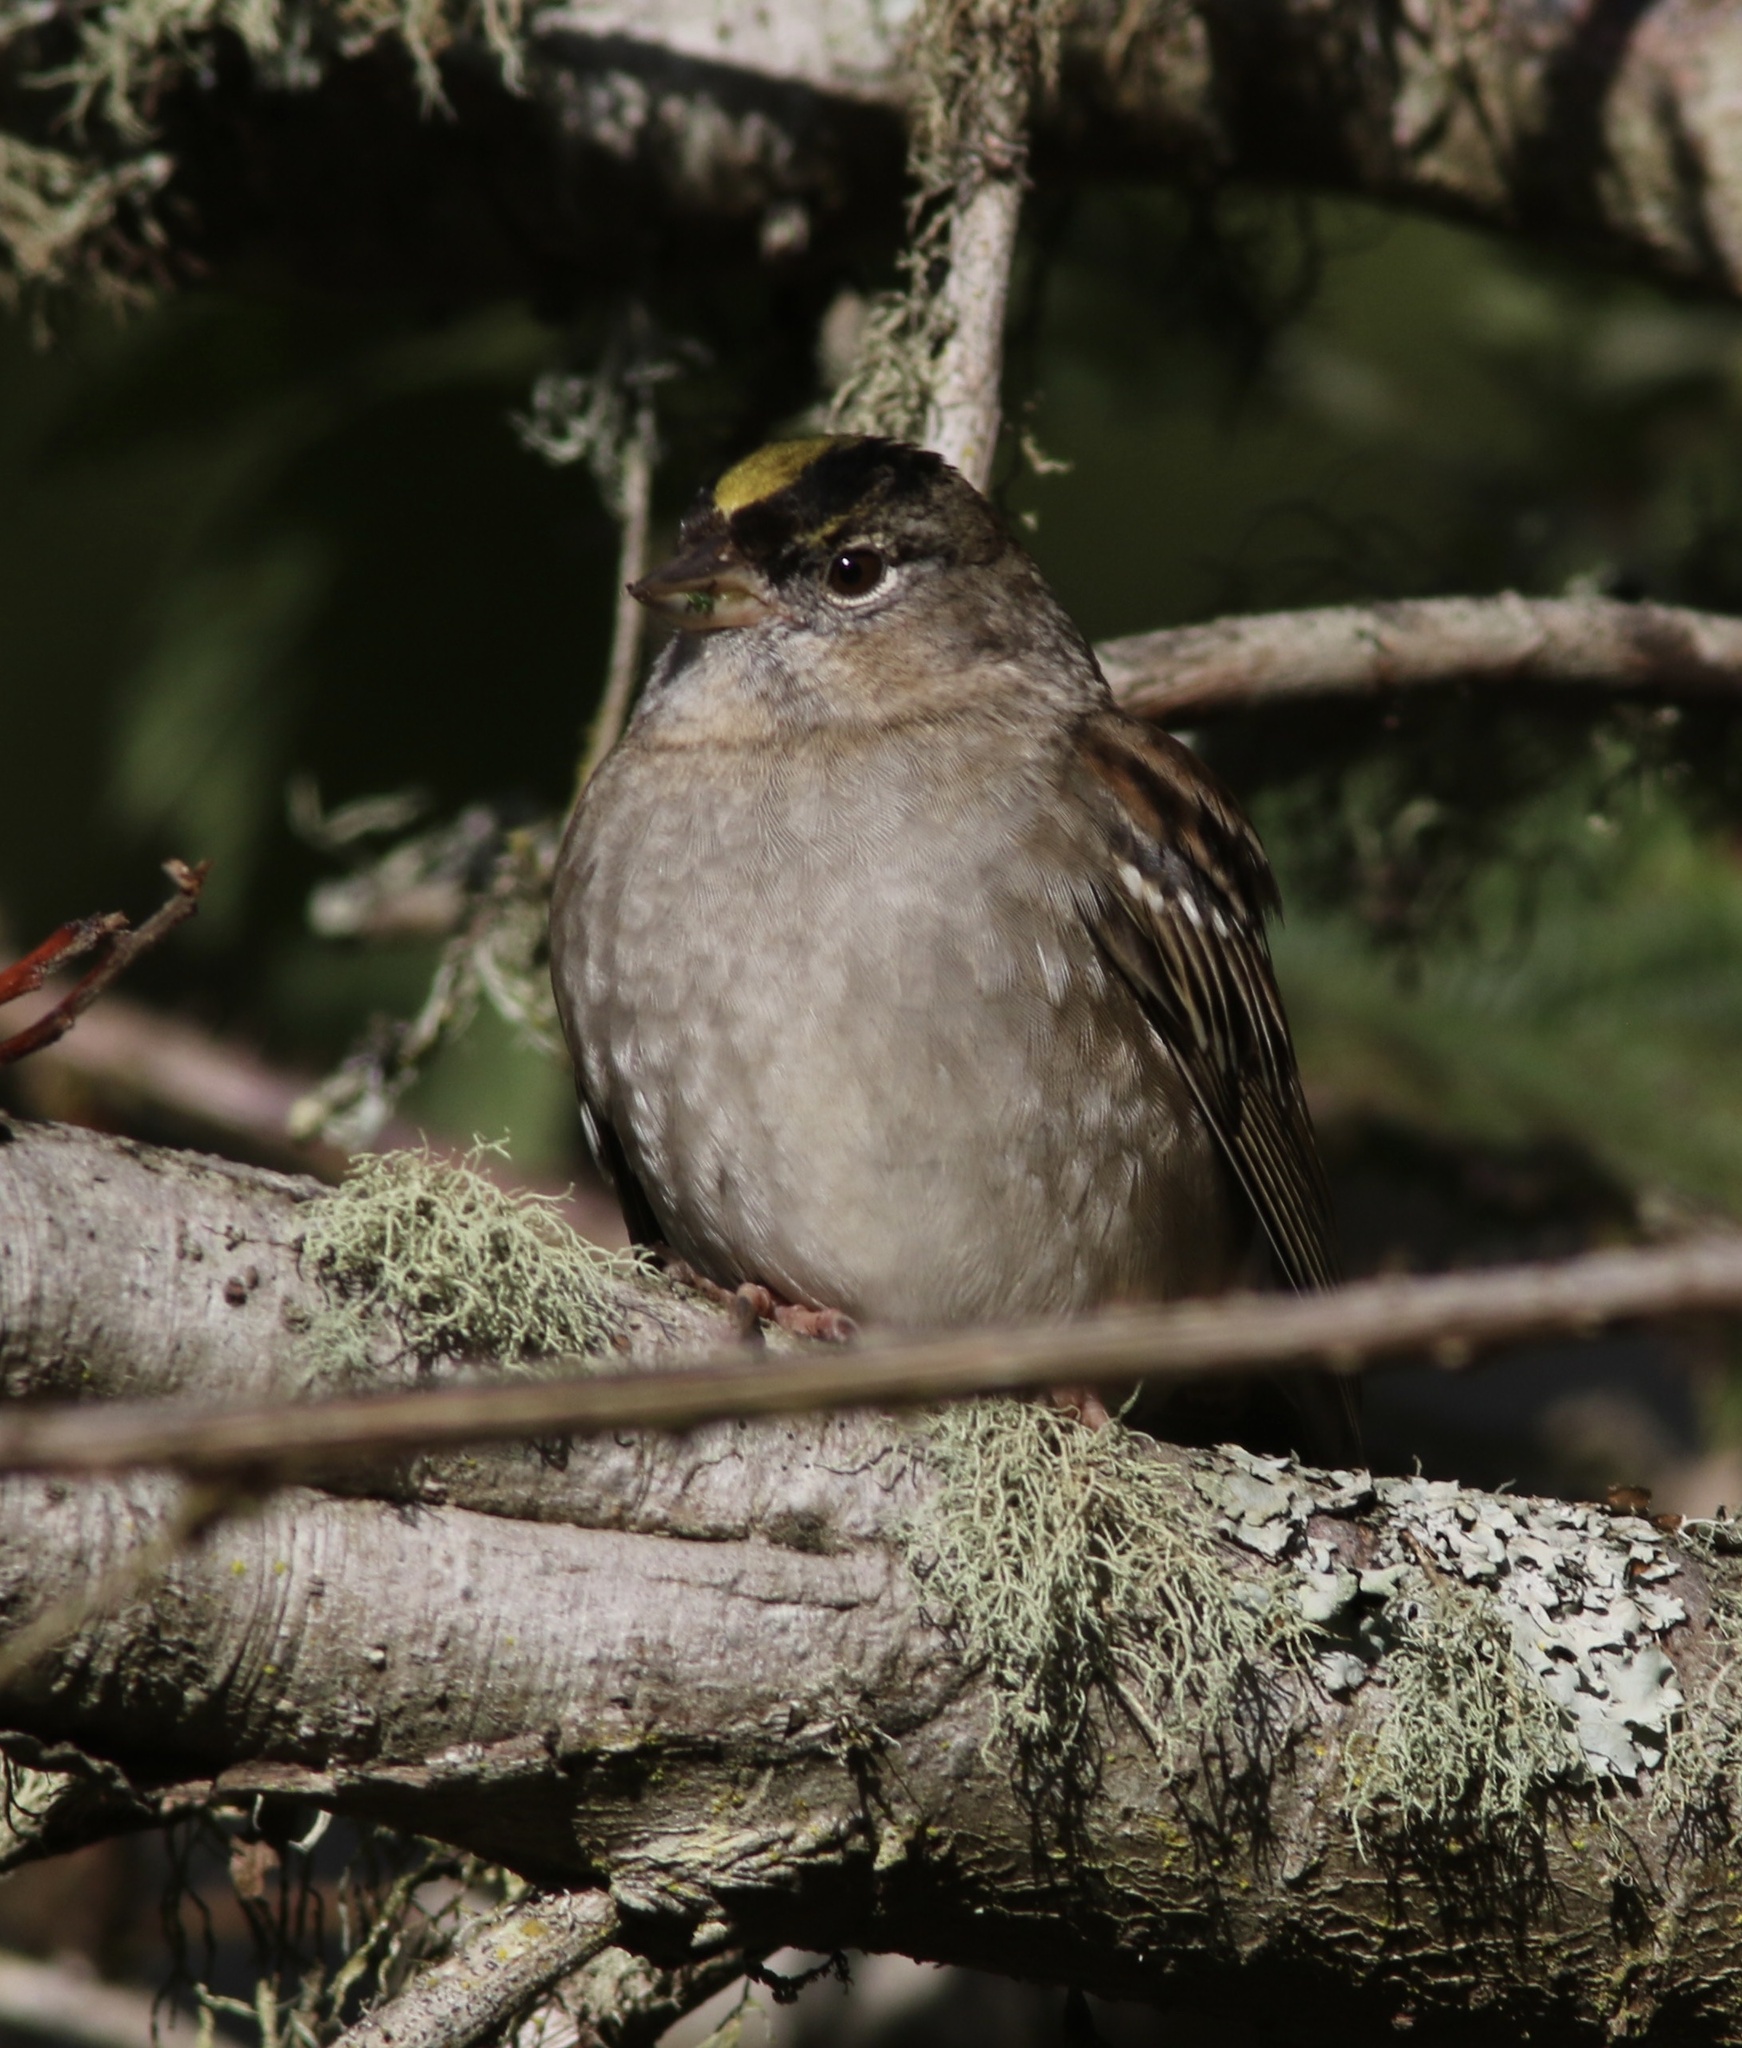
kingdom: Animalia
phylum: Chordata
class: Aves
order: Passeriformes
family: Passerellidae
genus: Zonotrichia
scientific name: Zonotrichia atricapilla
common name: Golden-crowned sparrow
